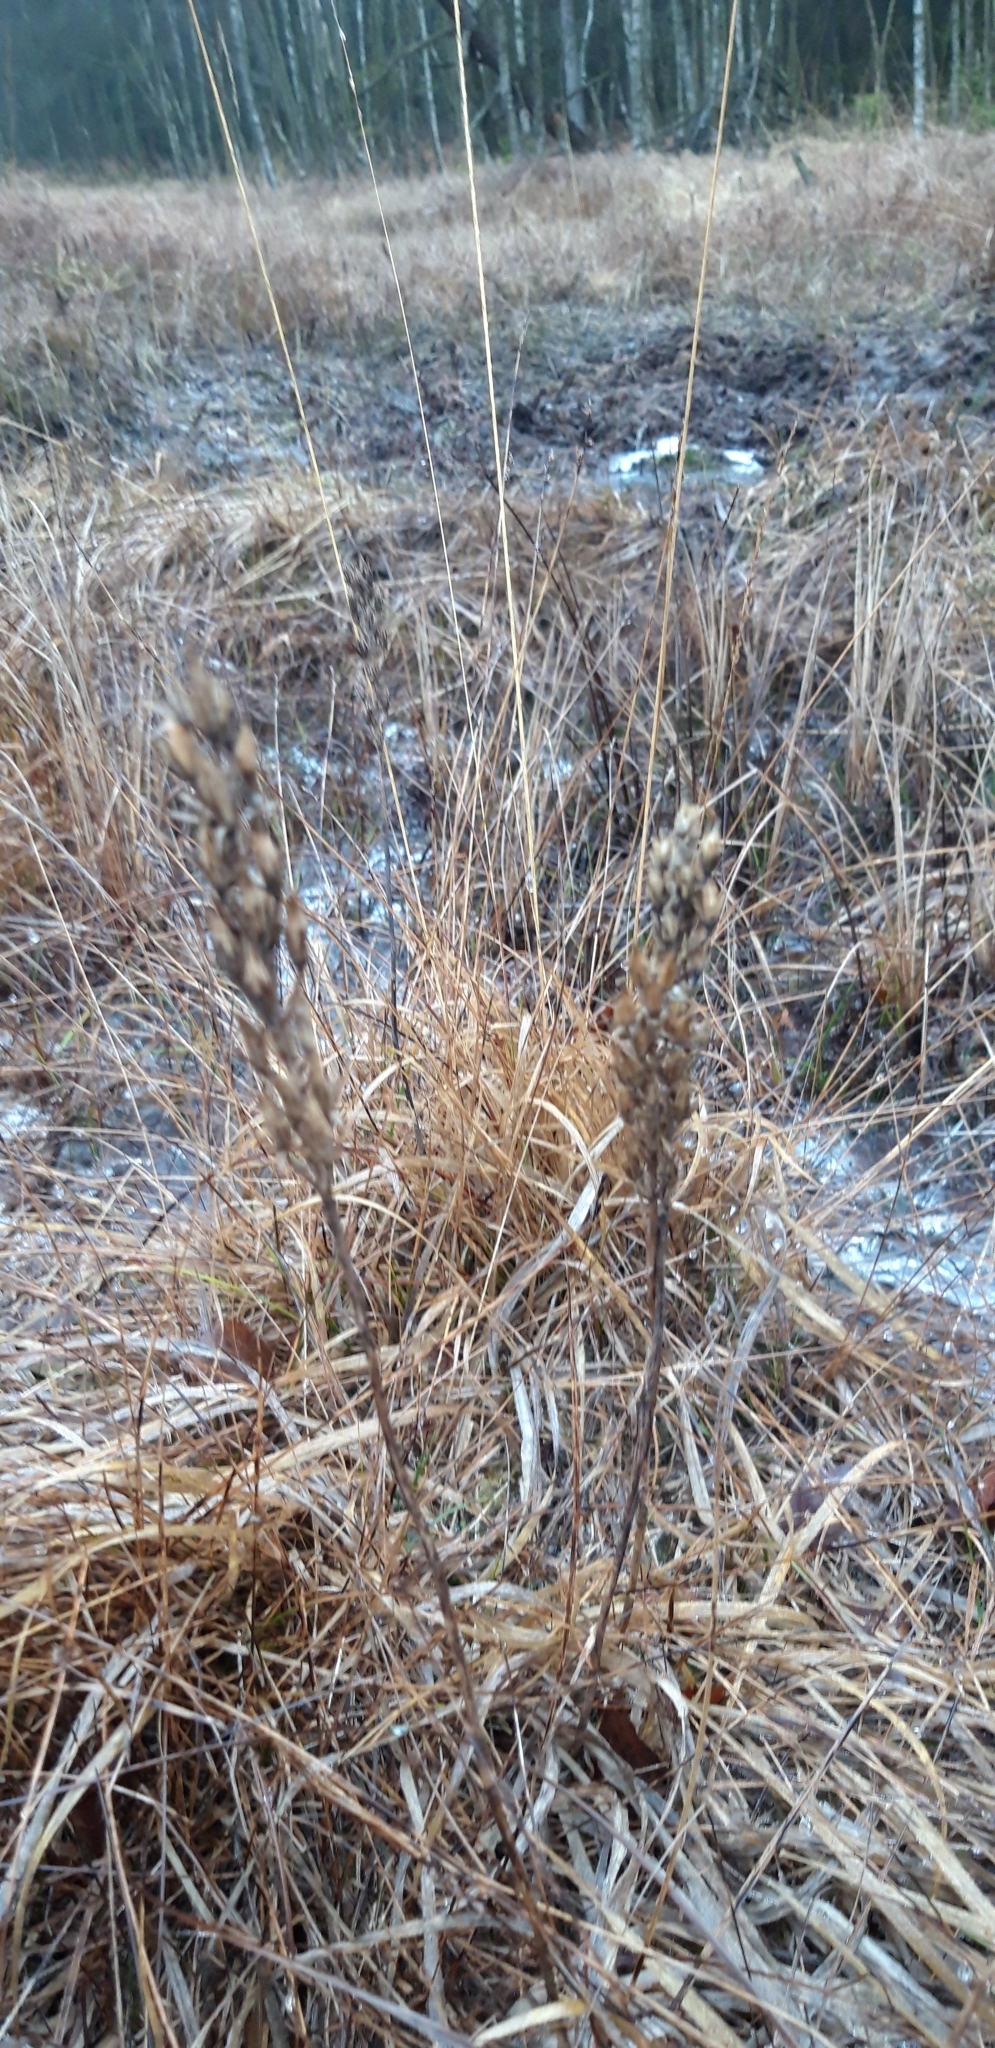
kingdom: Plantae
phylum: Tracheophyta
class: Liliopsida
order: Dioscoreales
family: Nartheciaceae
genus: Narthecium
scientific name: Narthecium ossifragum
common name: Bog asphodel
